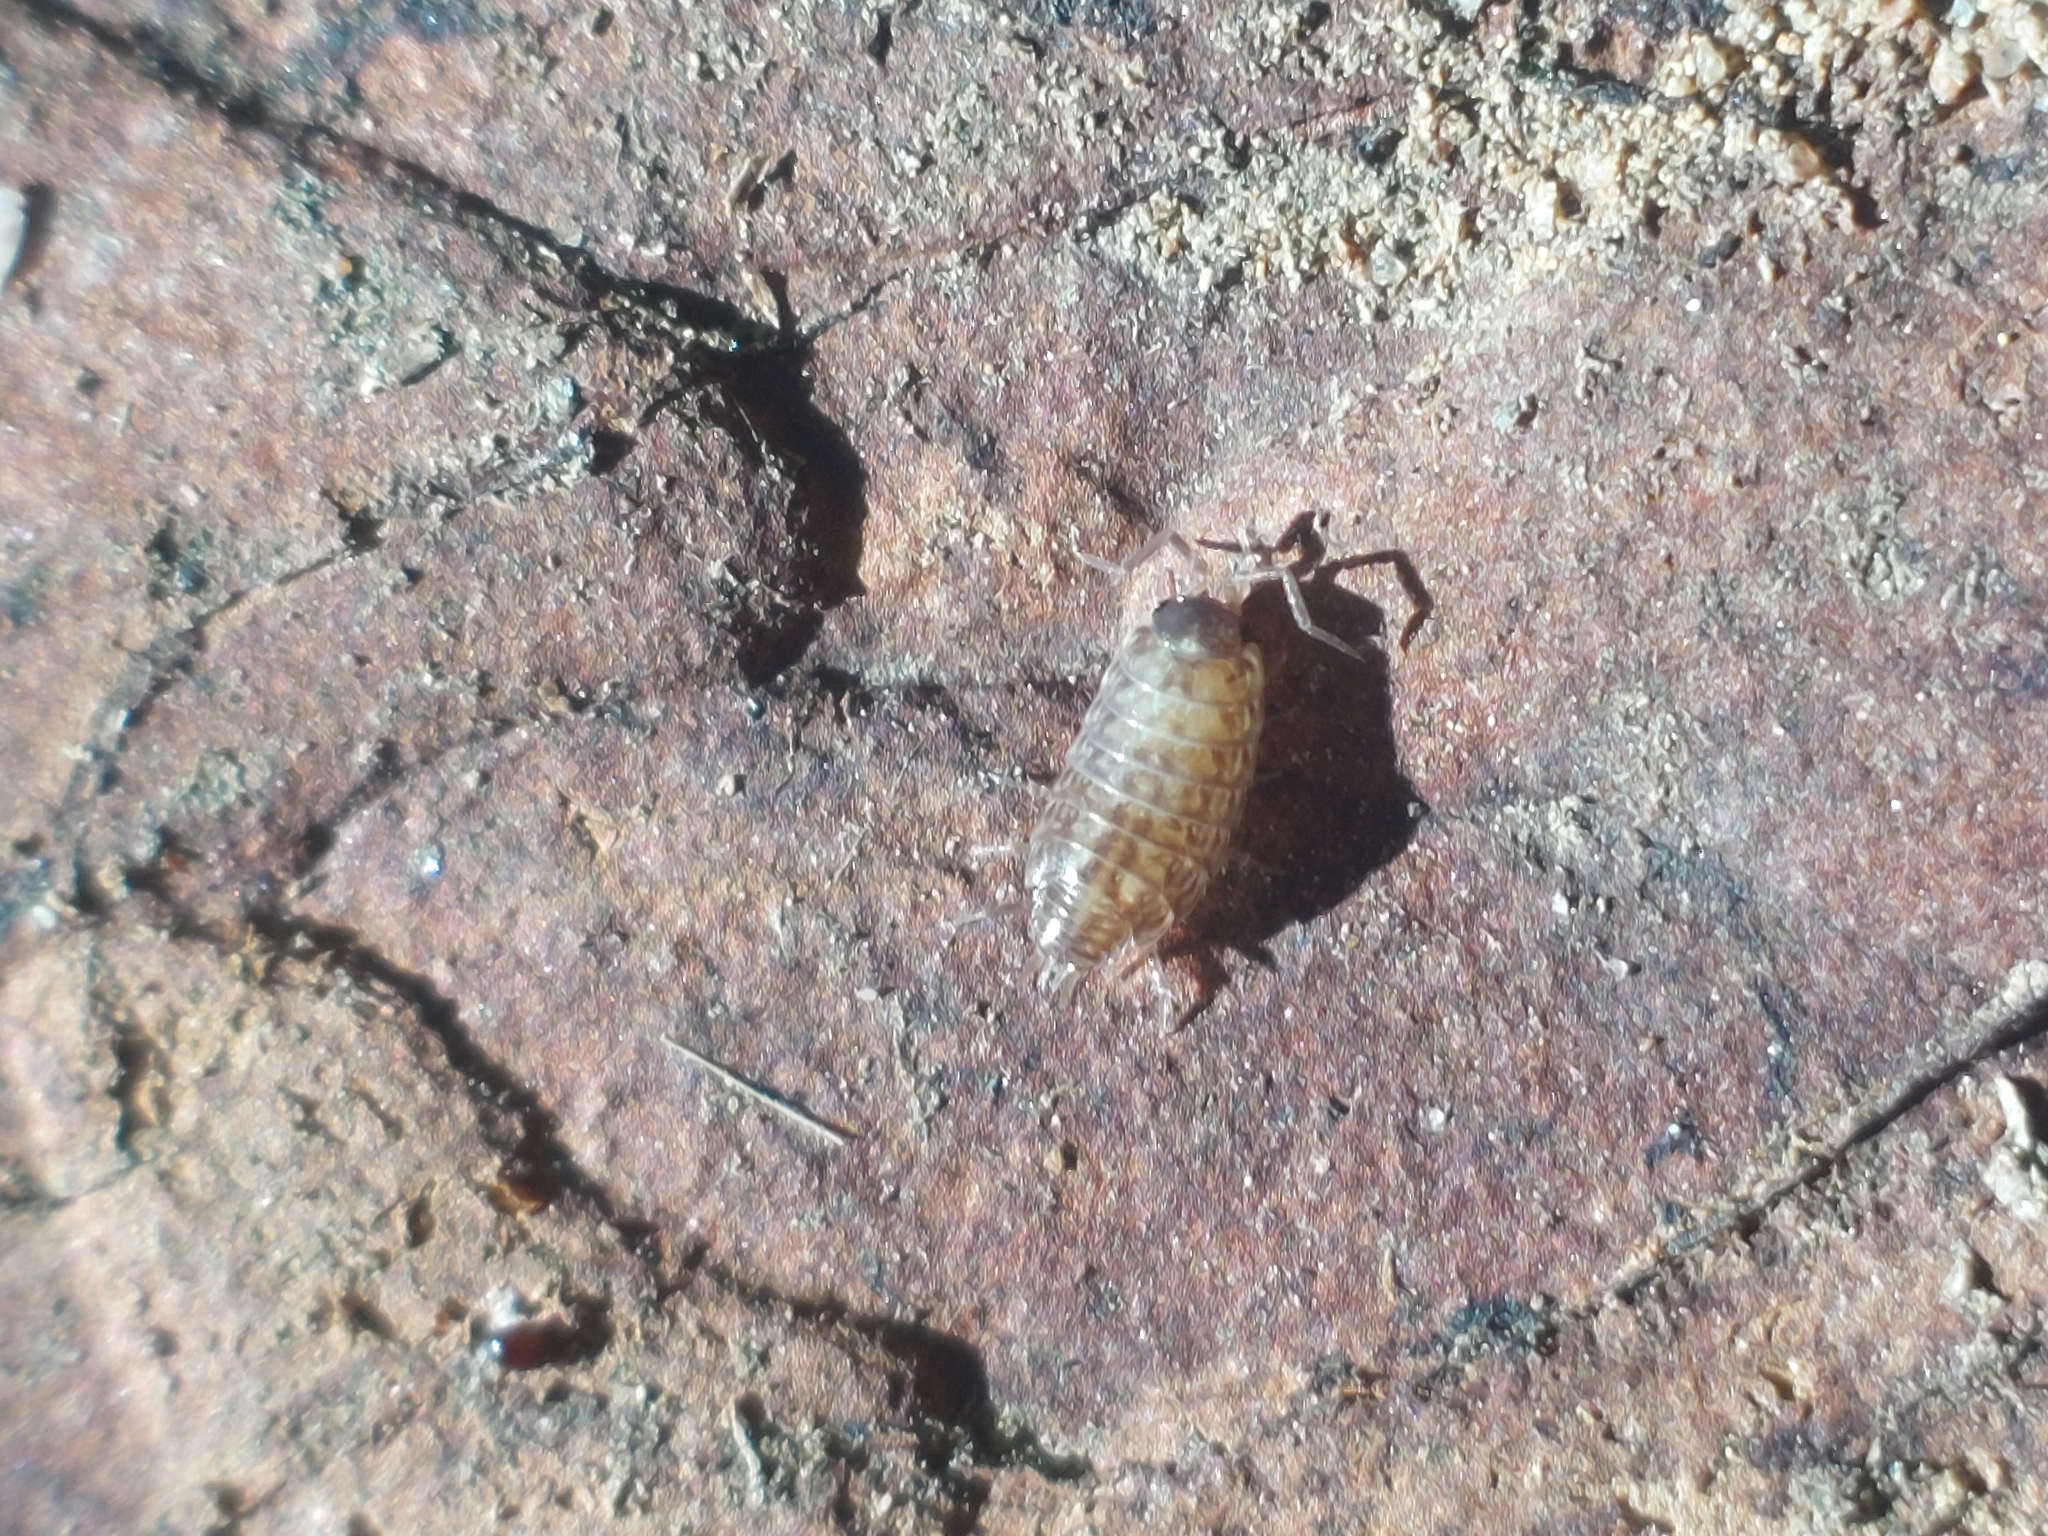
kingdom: Animalia
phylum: Arthropoda
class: Malacostraca
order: Isopoda
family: Philosciidae
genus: Philoscia
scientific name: Philoscia muscorum
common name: Common striped woodlouse
